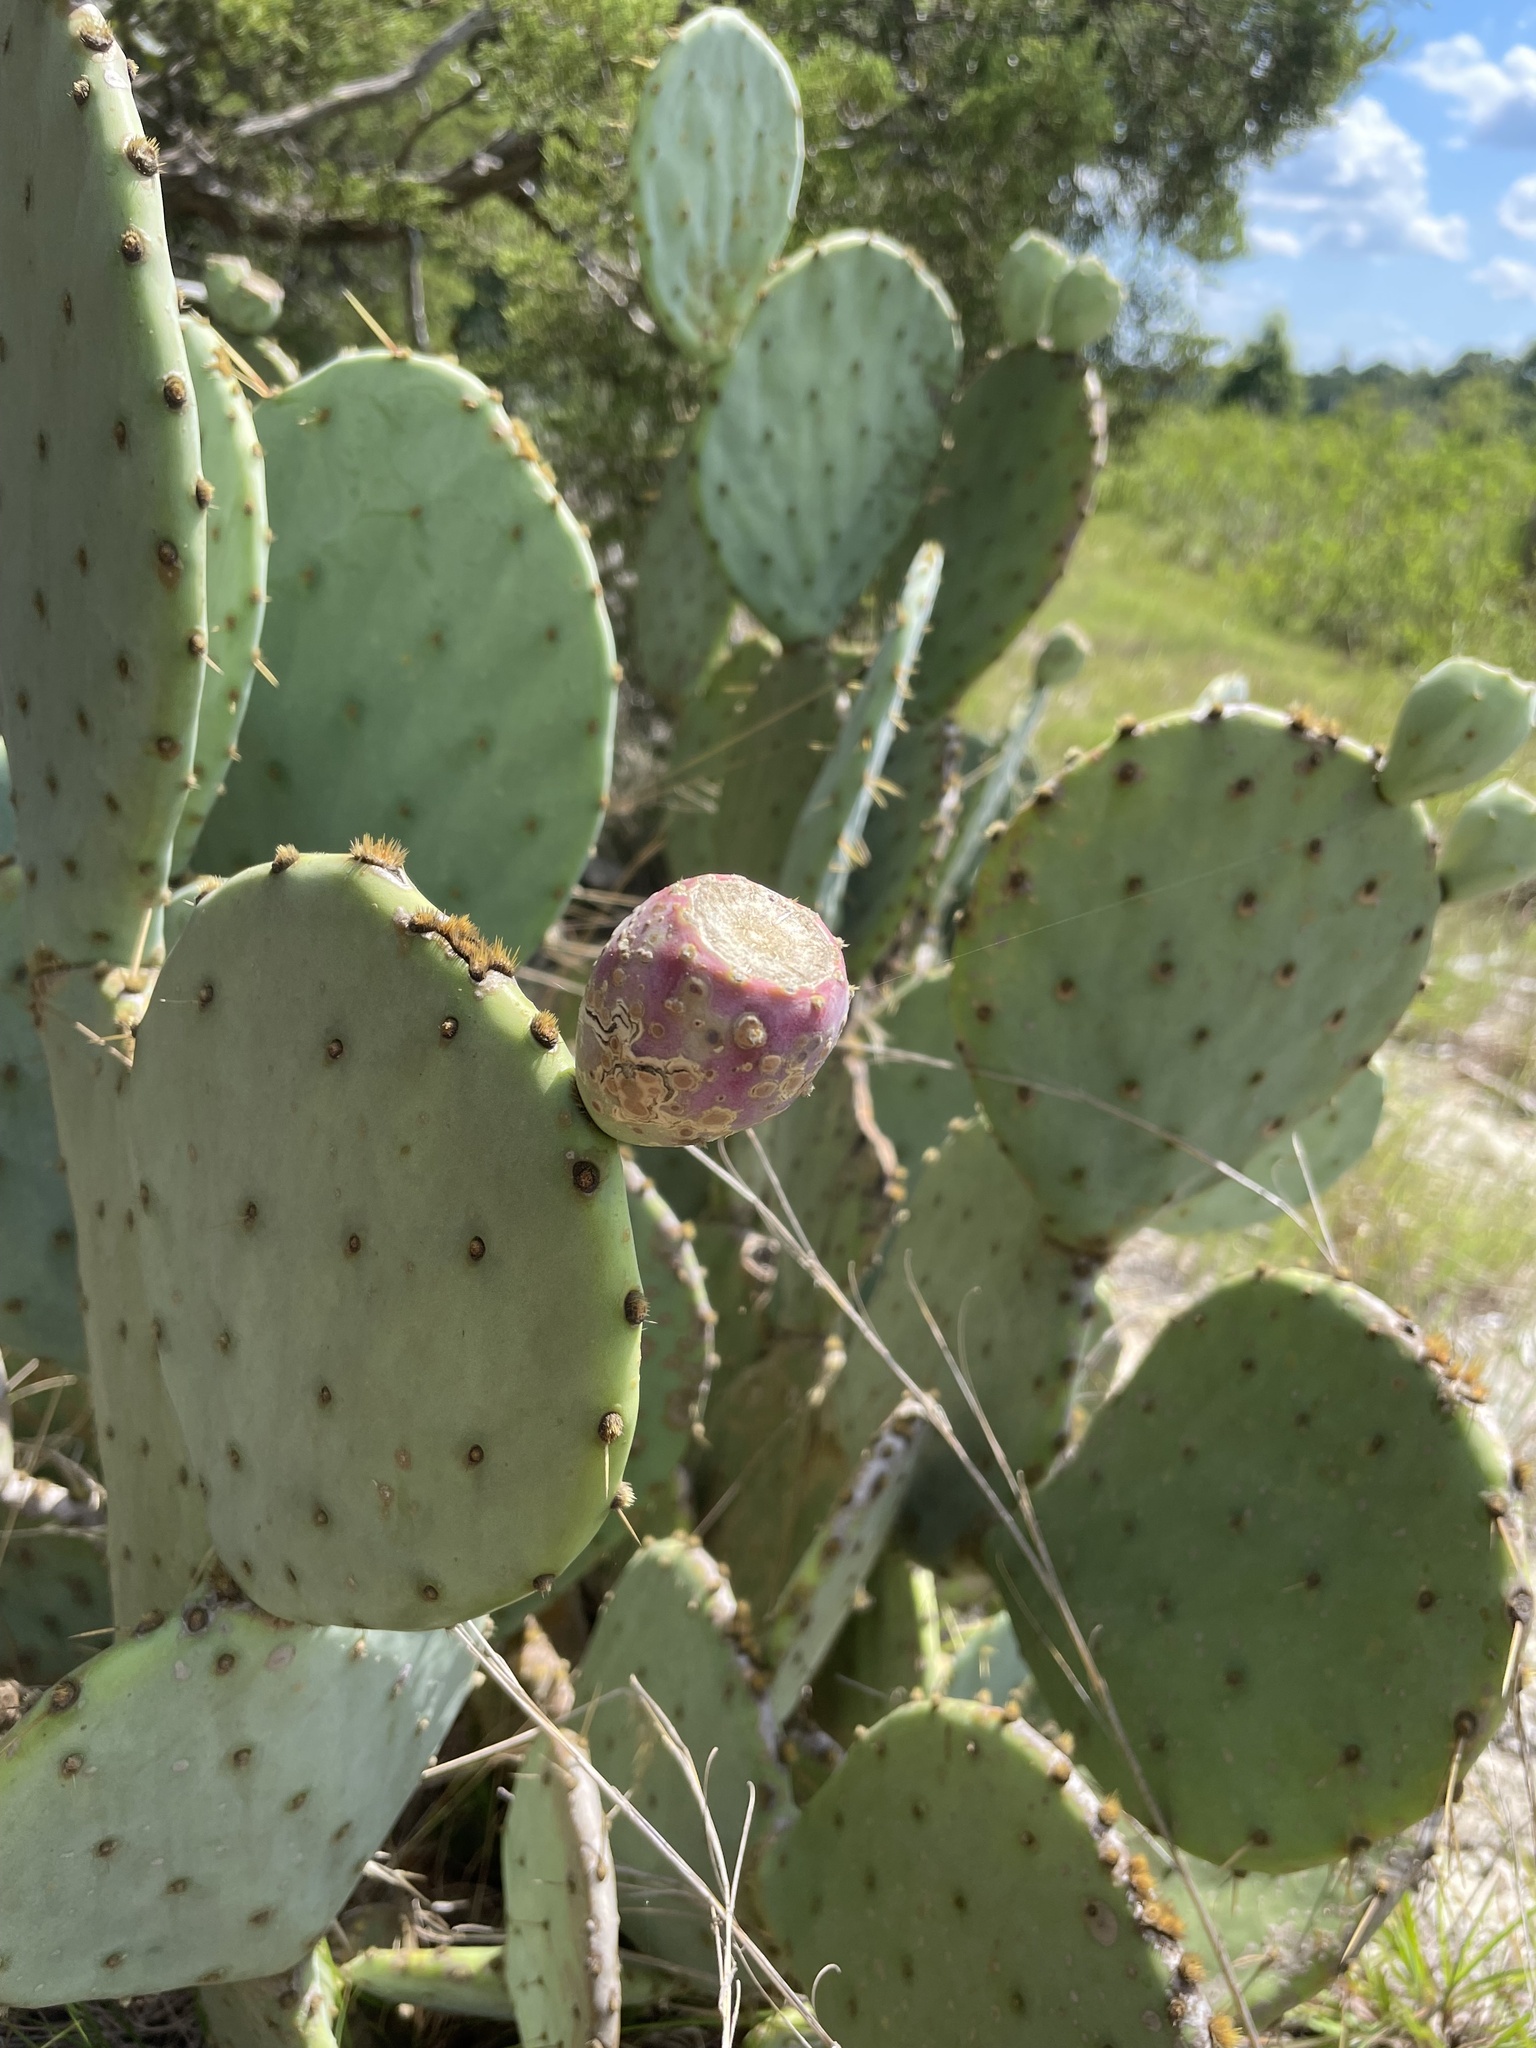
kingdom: Plantae
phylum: Tracheophyta
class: Magnoliopsida
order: Caryophyllales
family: Cactaceae
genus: Opuntia
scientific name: Opuntia engelmannii
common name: Cactus-apple
